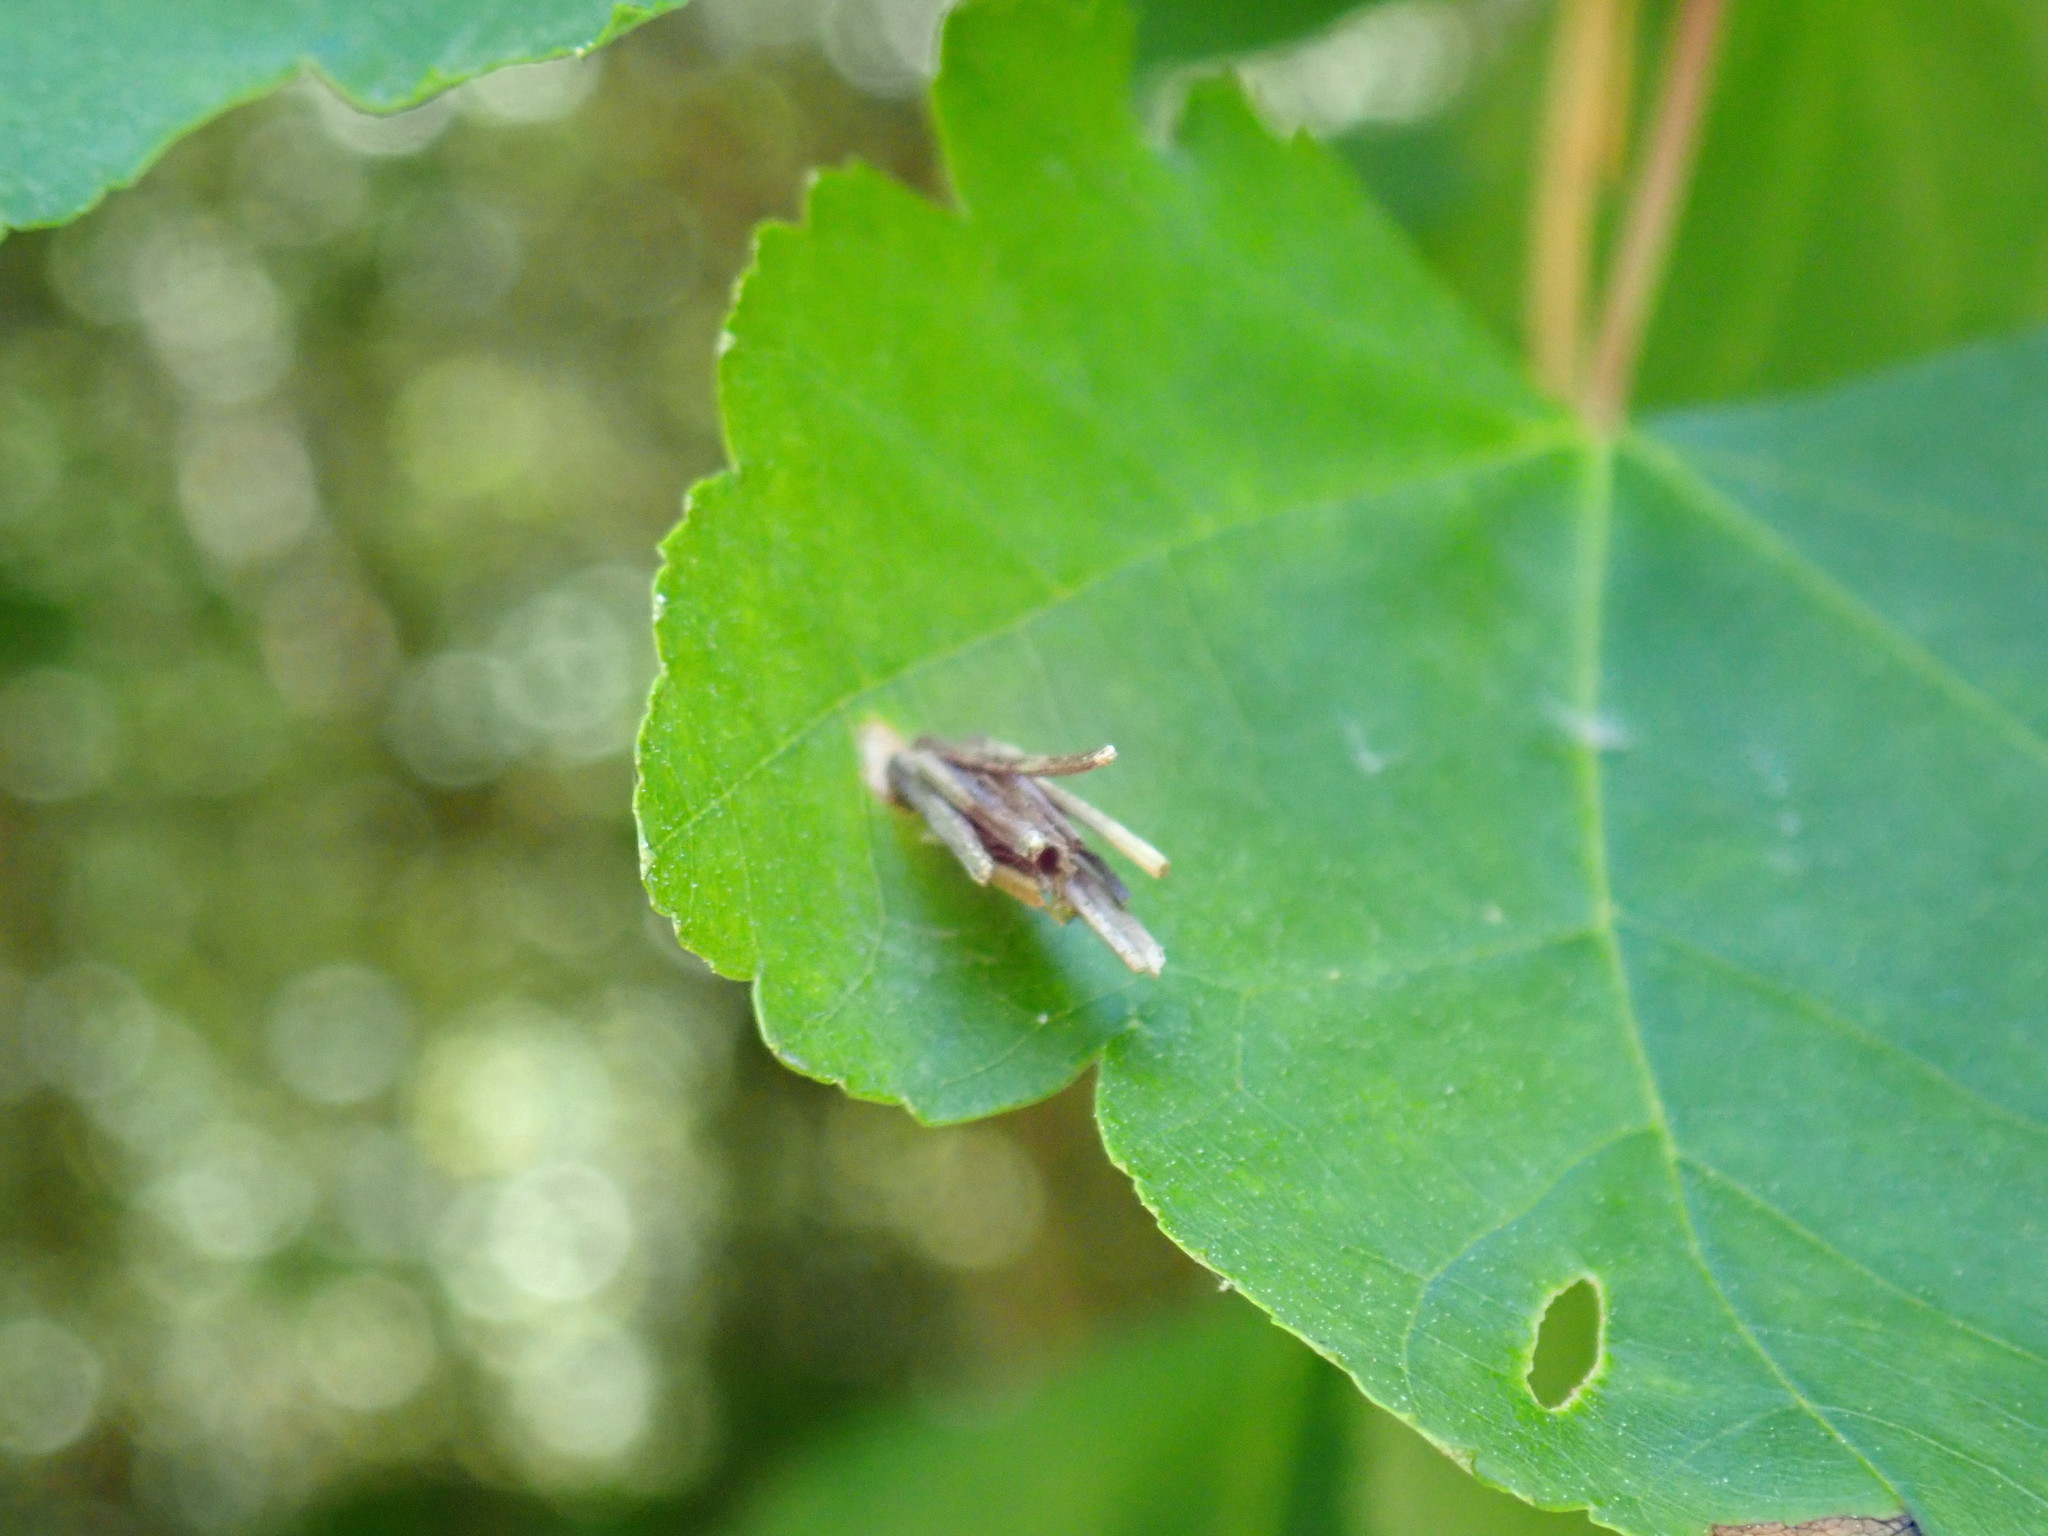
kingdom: Animalia
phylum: Arthropoda
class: Insecta
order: Lepidoptera
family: Psychidae
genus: Psyche
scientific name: Psyche casta
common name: Common sweep
